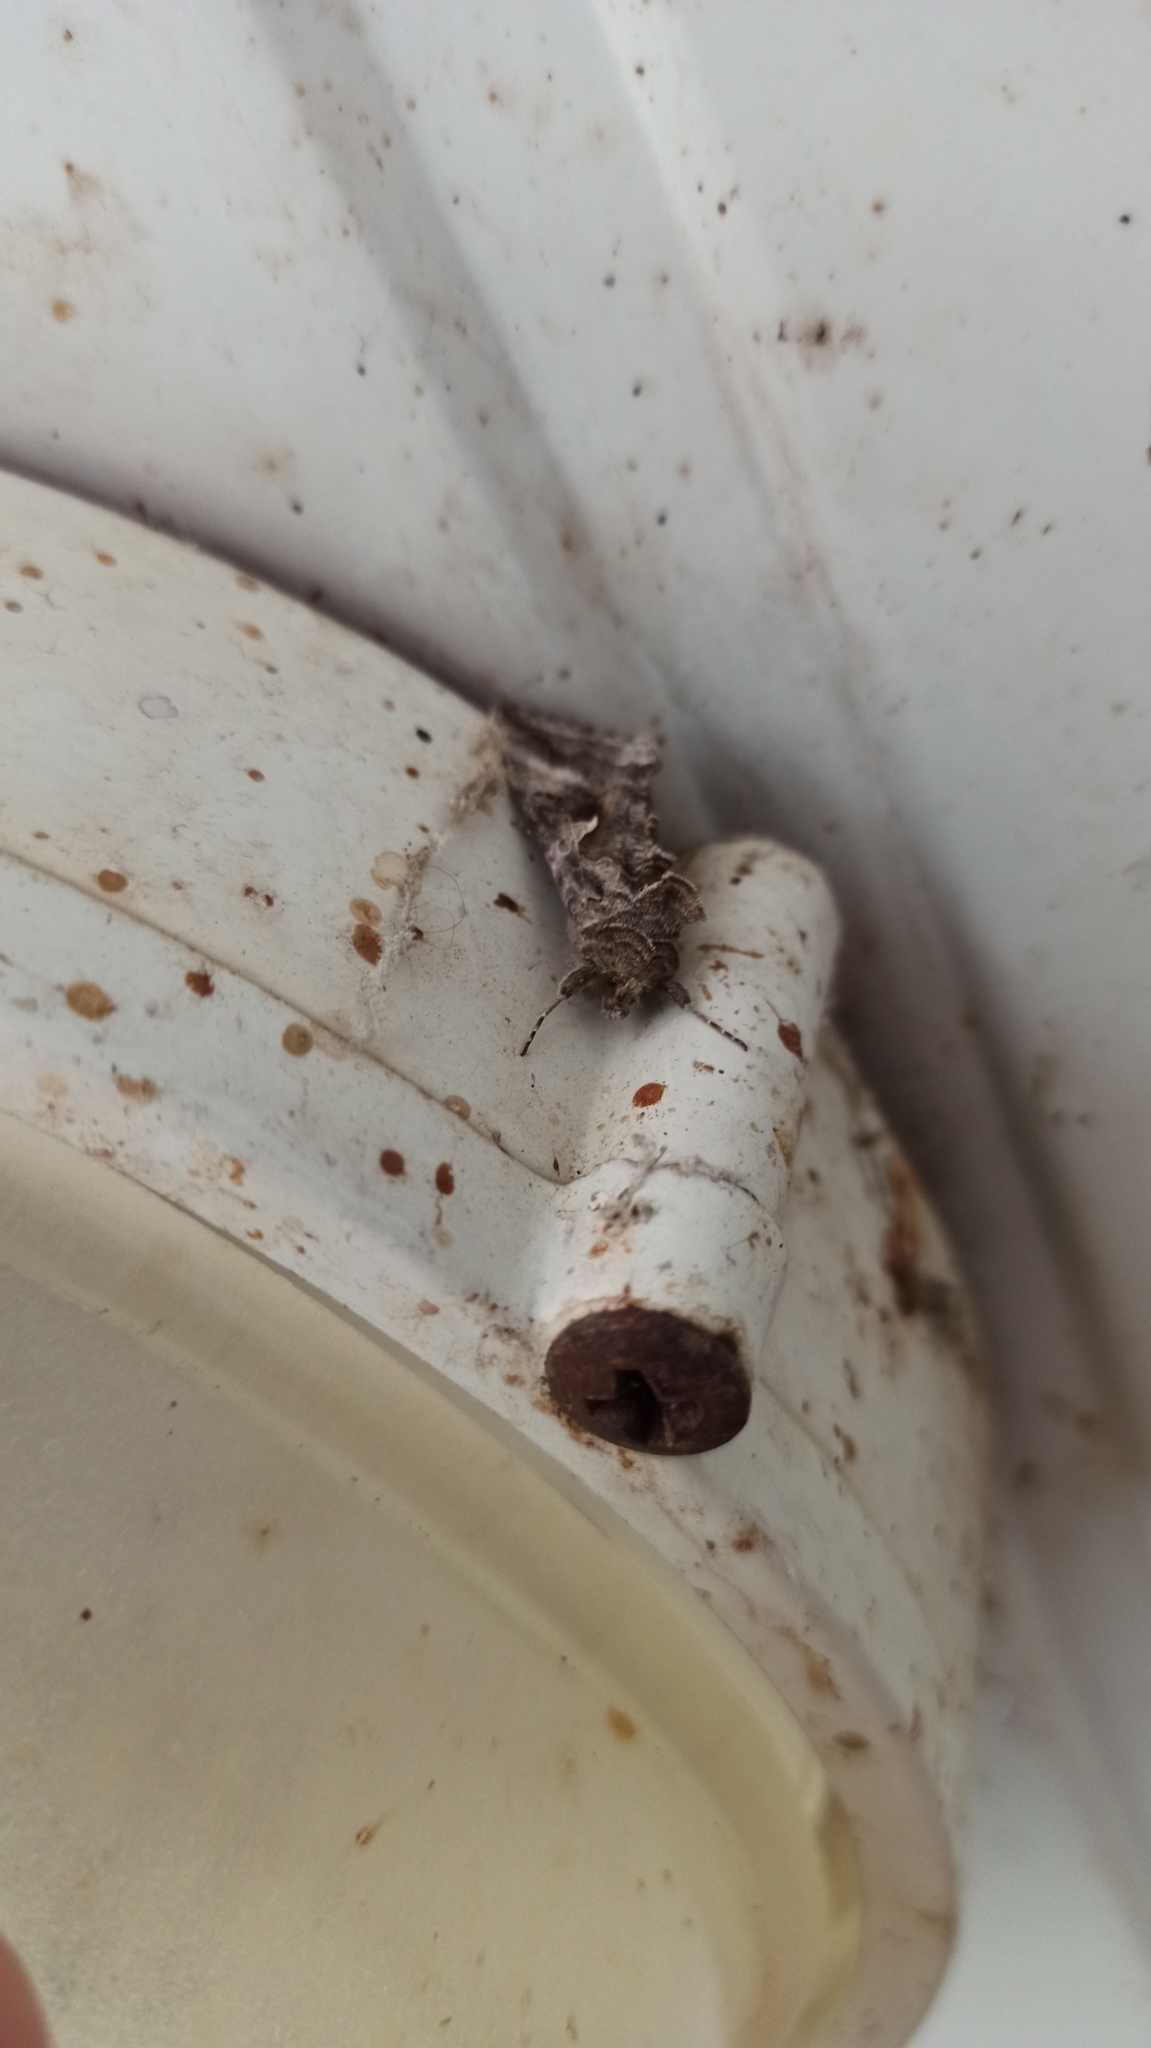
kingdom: Animalia
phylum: Arthropoda
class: Insecta
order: Lepidoptera
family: Noctuidae
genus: Autographa
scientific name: Autographa gamma
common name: Silver y
